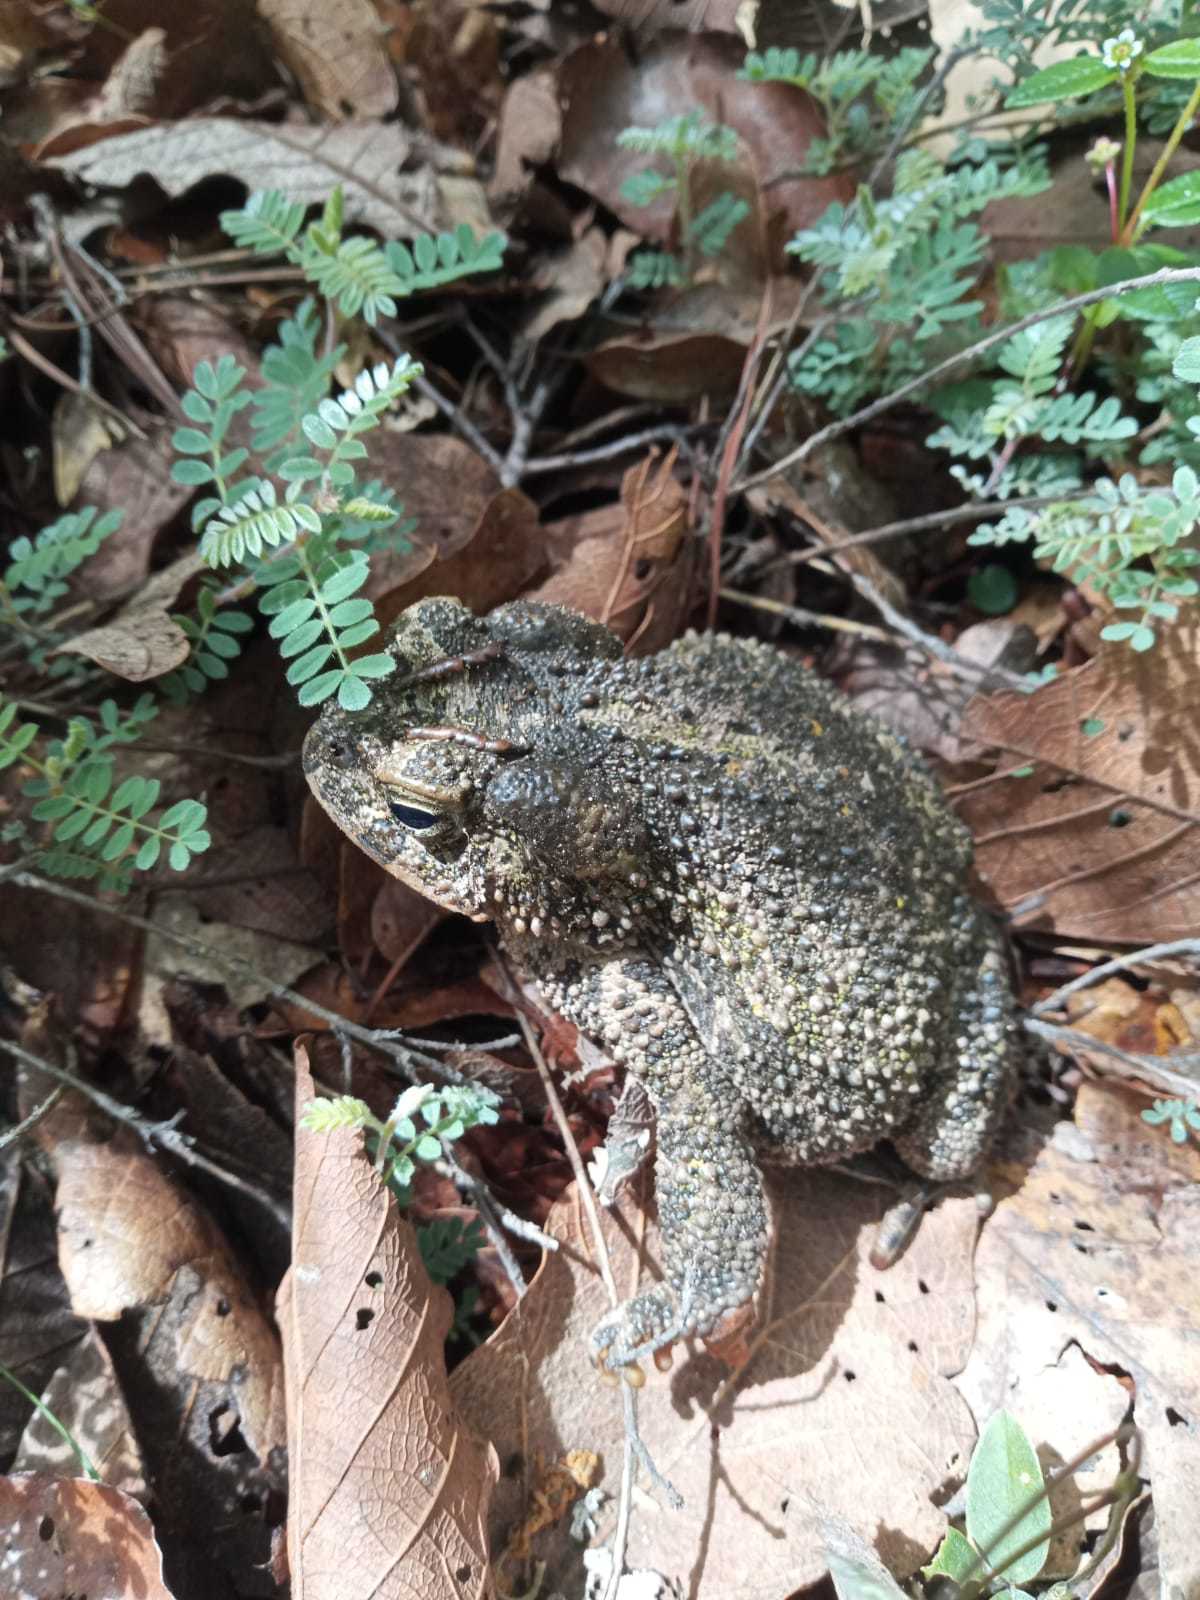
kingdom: Animalia
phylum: Chordata
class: Amphibia
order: Anura
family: Bufonidae
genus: Incilius
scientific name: Incilius occidentalis
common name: Pine toad
